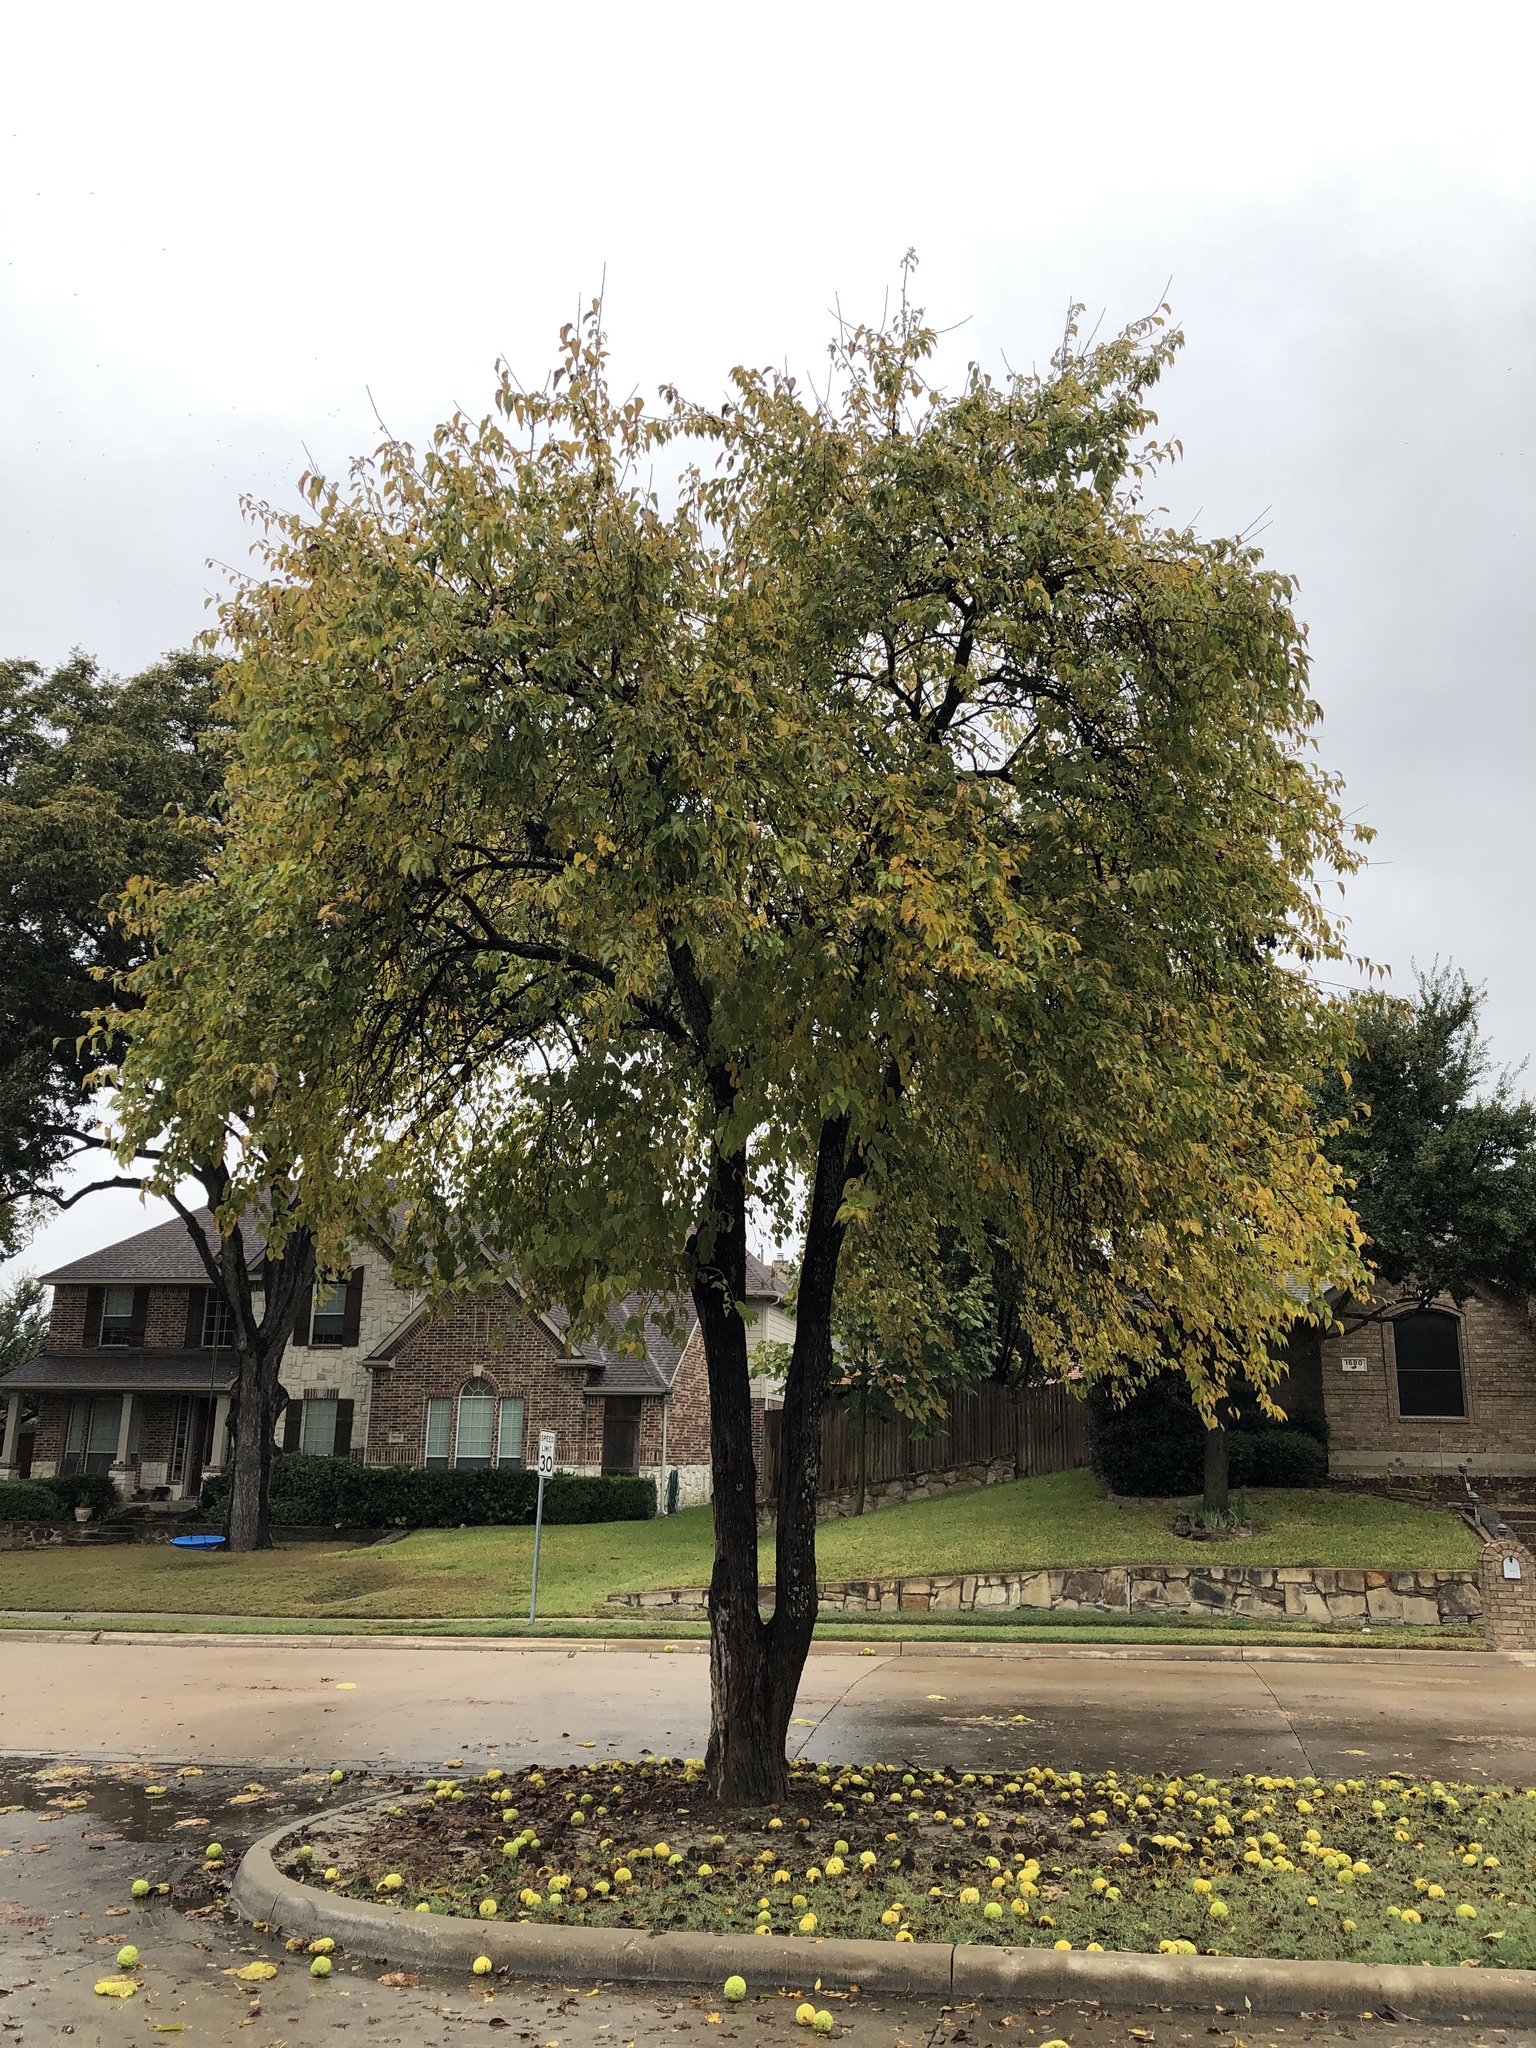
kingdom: Plantae
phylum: Tracheophyta
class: Magnoliopsida
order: Rosales
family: Moraceae
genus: Maclura
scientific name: Maclura pomifera
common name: Osage-orange
